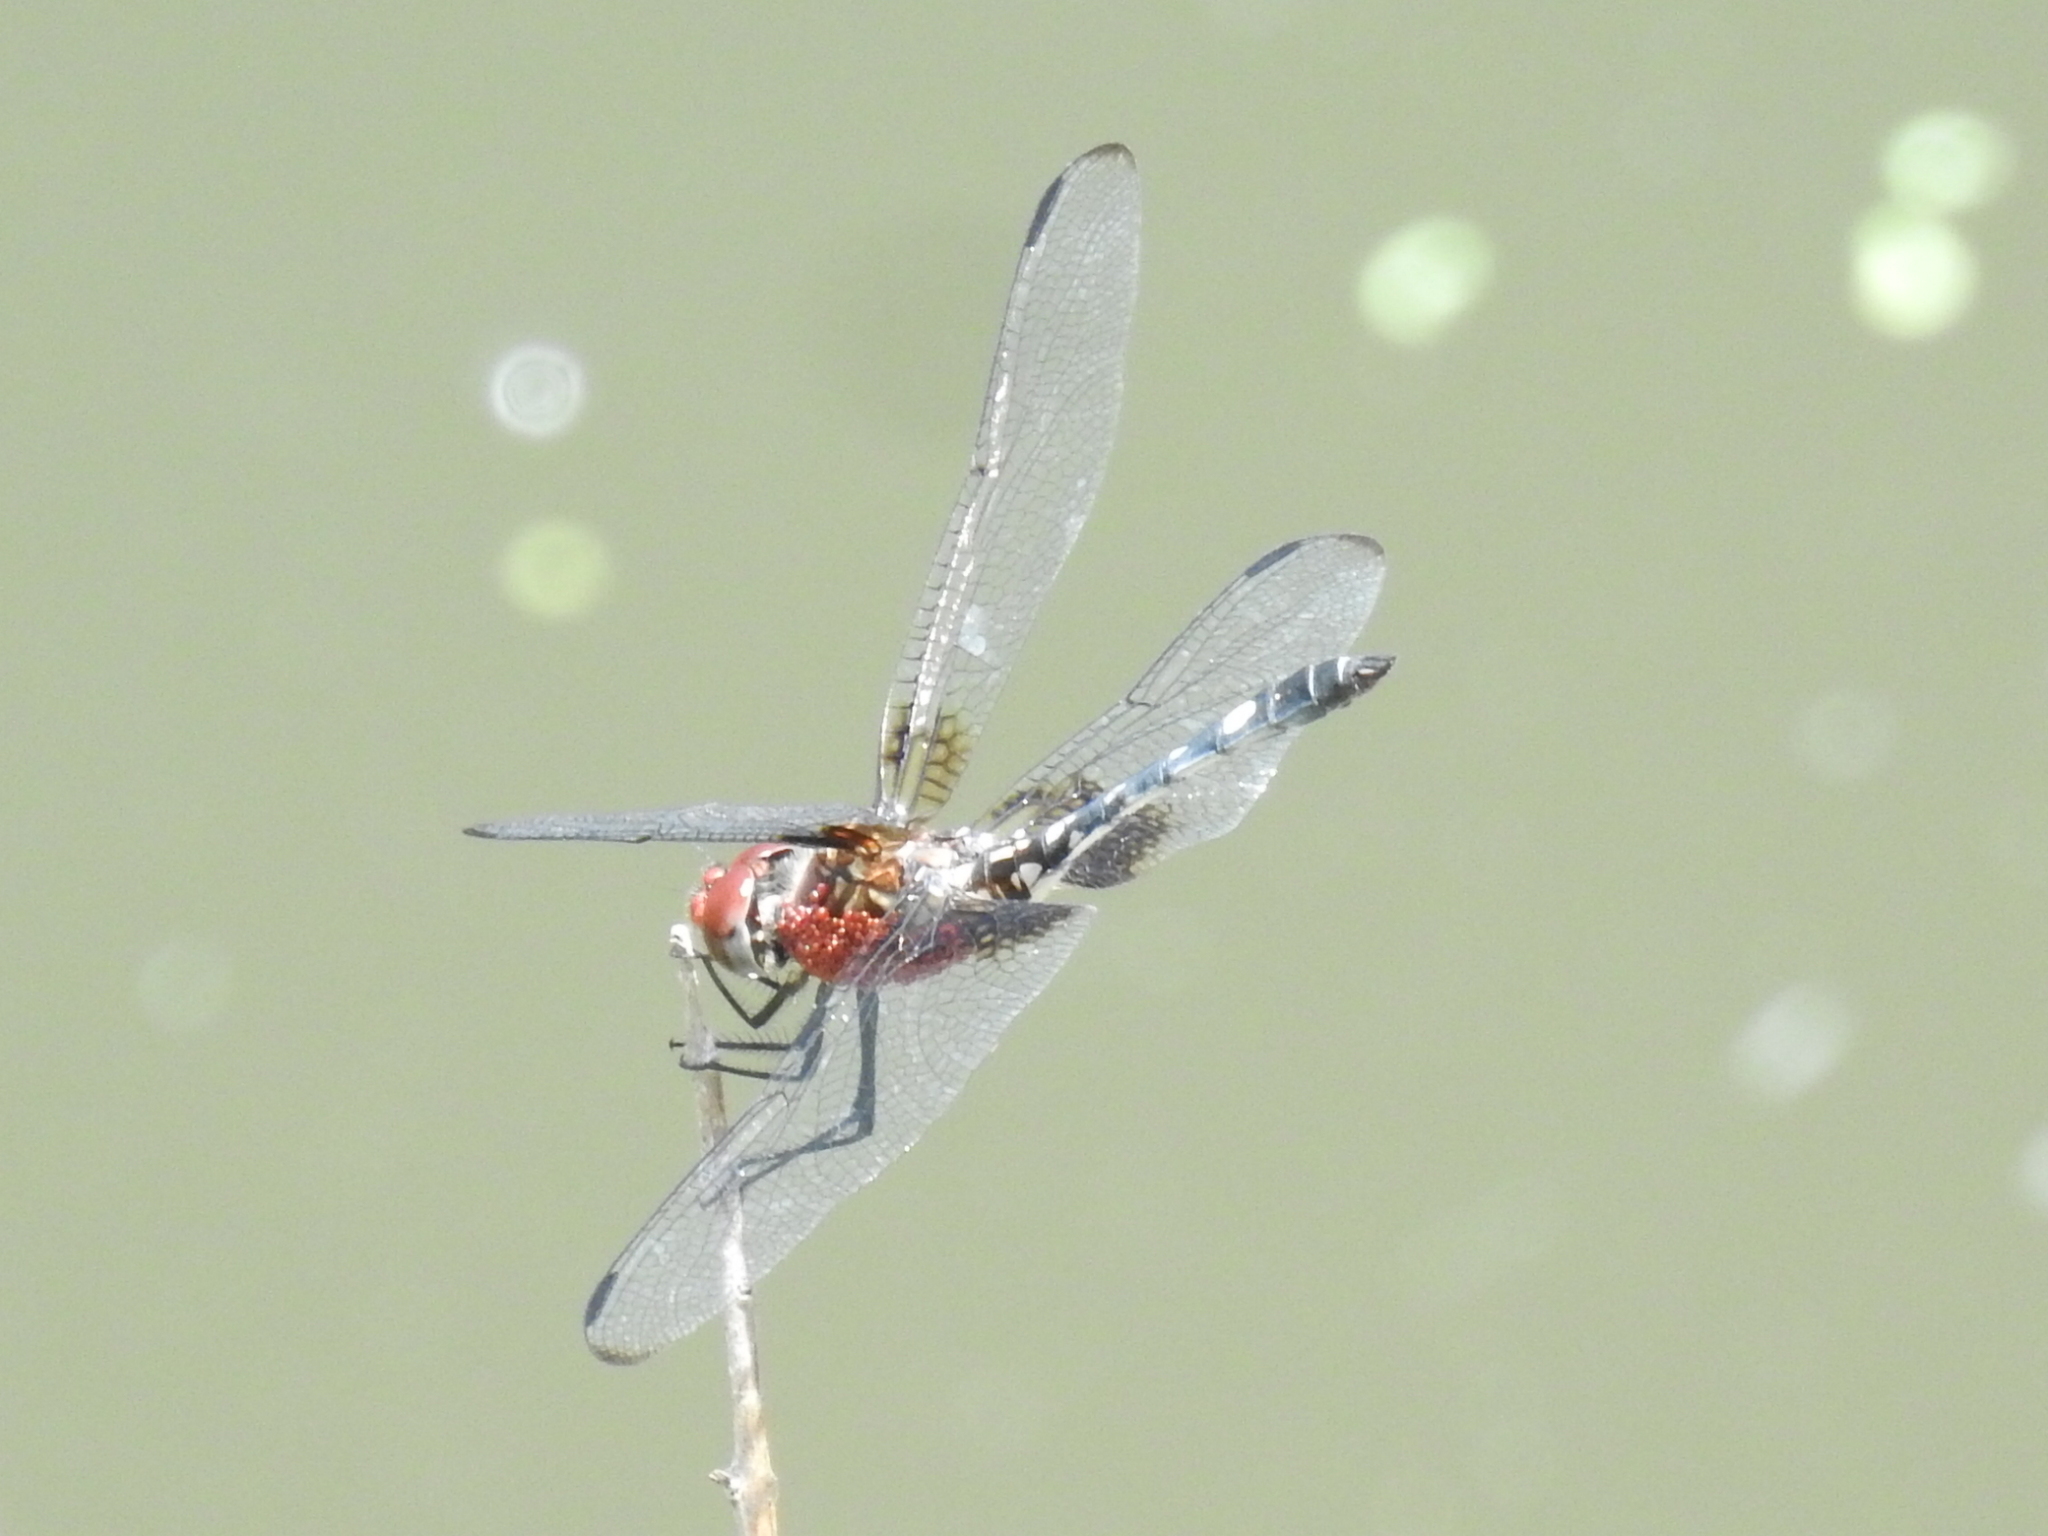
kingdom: Animalia
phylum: Arthropoda
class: Insecta
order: Odonata
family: Libellulidae
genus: Dythemis
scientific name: Dythemis fugax
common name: Checkered setwing
